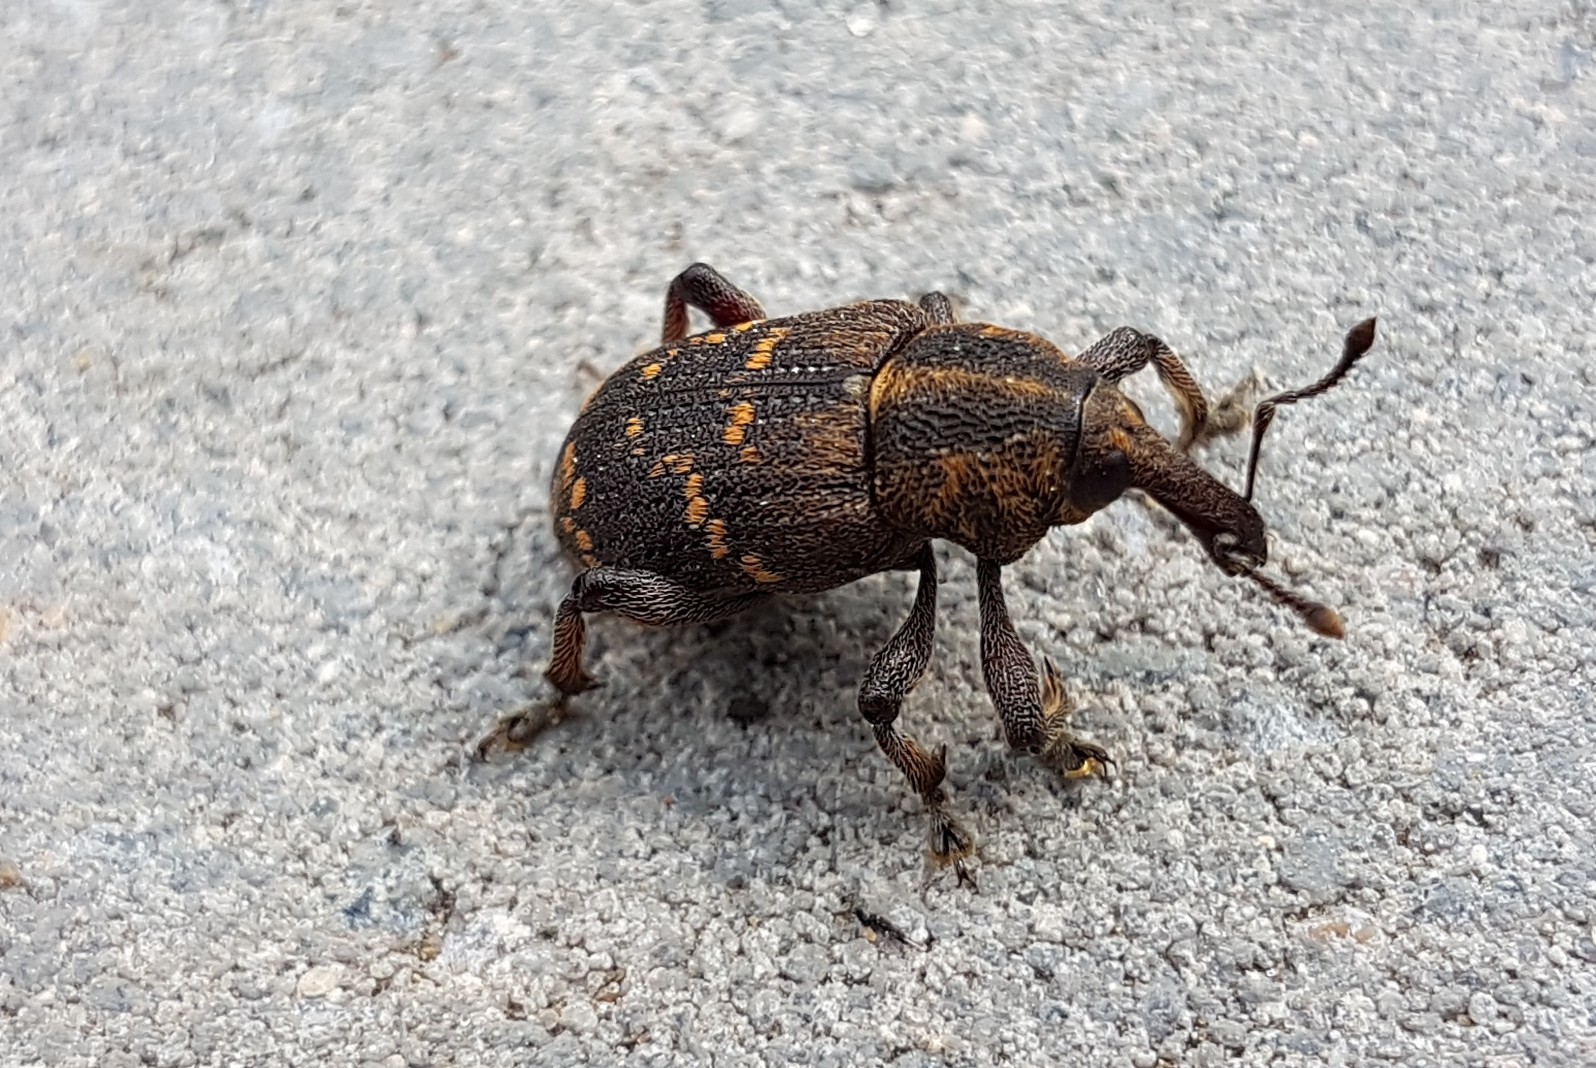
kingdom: Animalia
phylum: Arthropoda
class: Insecta
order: Coleoptera
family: Curculionidae
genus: Hylobius
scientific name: Hylobius abietis
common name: Large pine weevil
